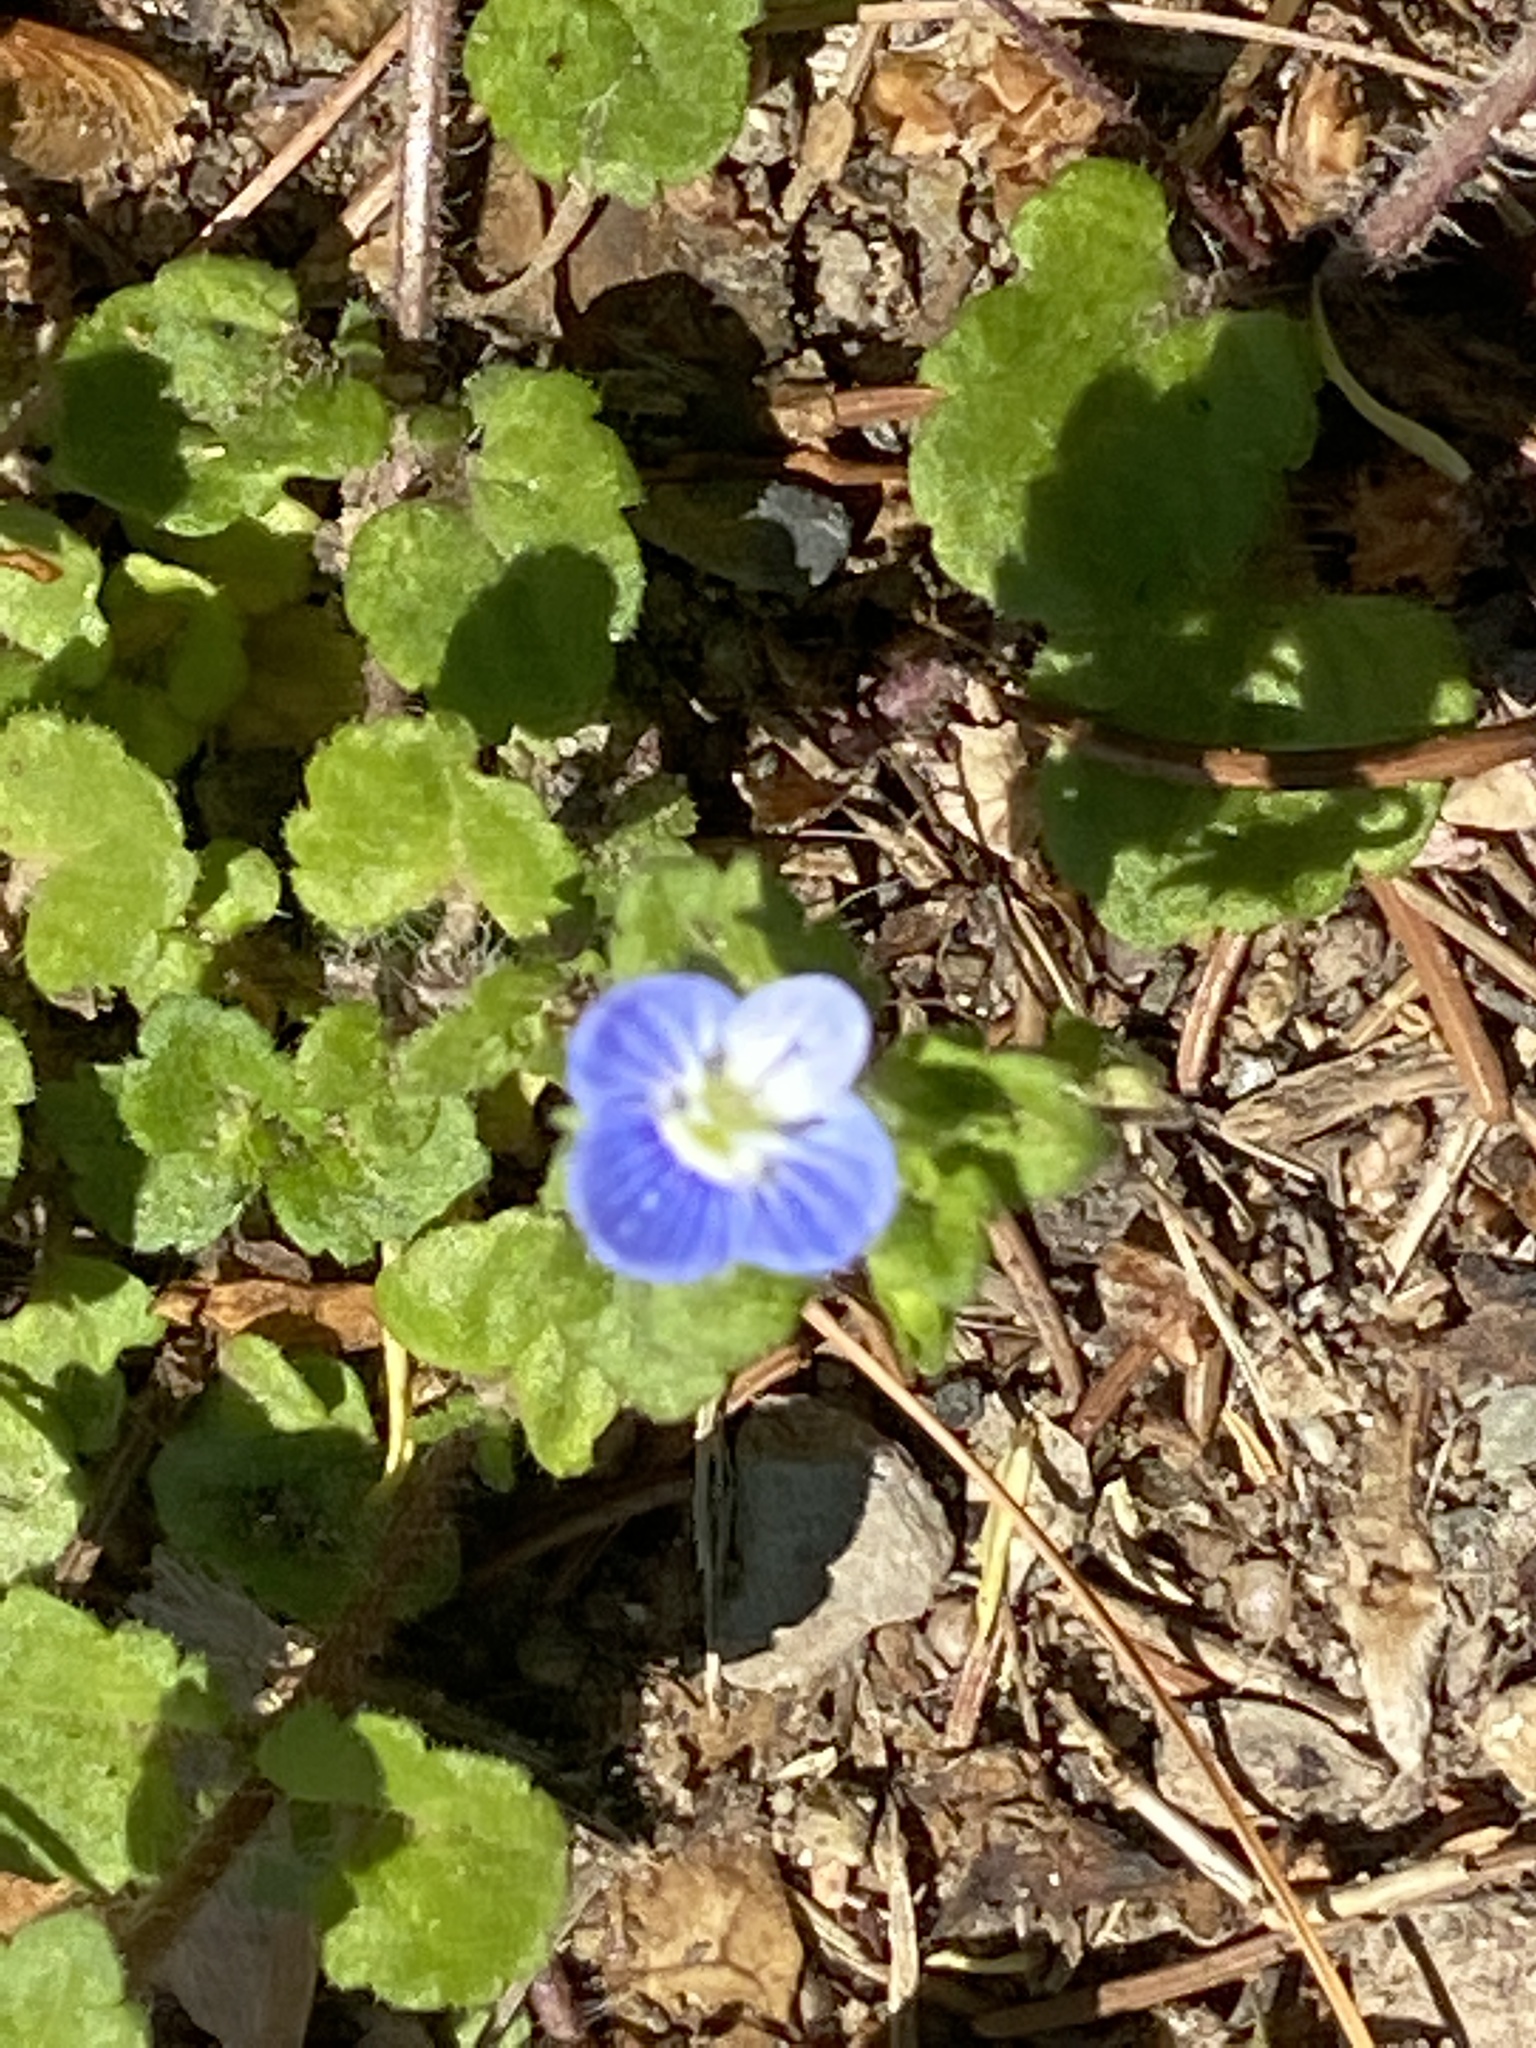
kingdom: Plantae
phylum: Tracheophyta
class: Magnoliopsida
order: Lamiales
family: Plantaginaceae
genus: Veronica
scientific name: Veronica persica
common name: Common field-speedwell
